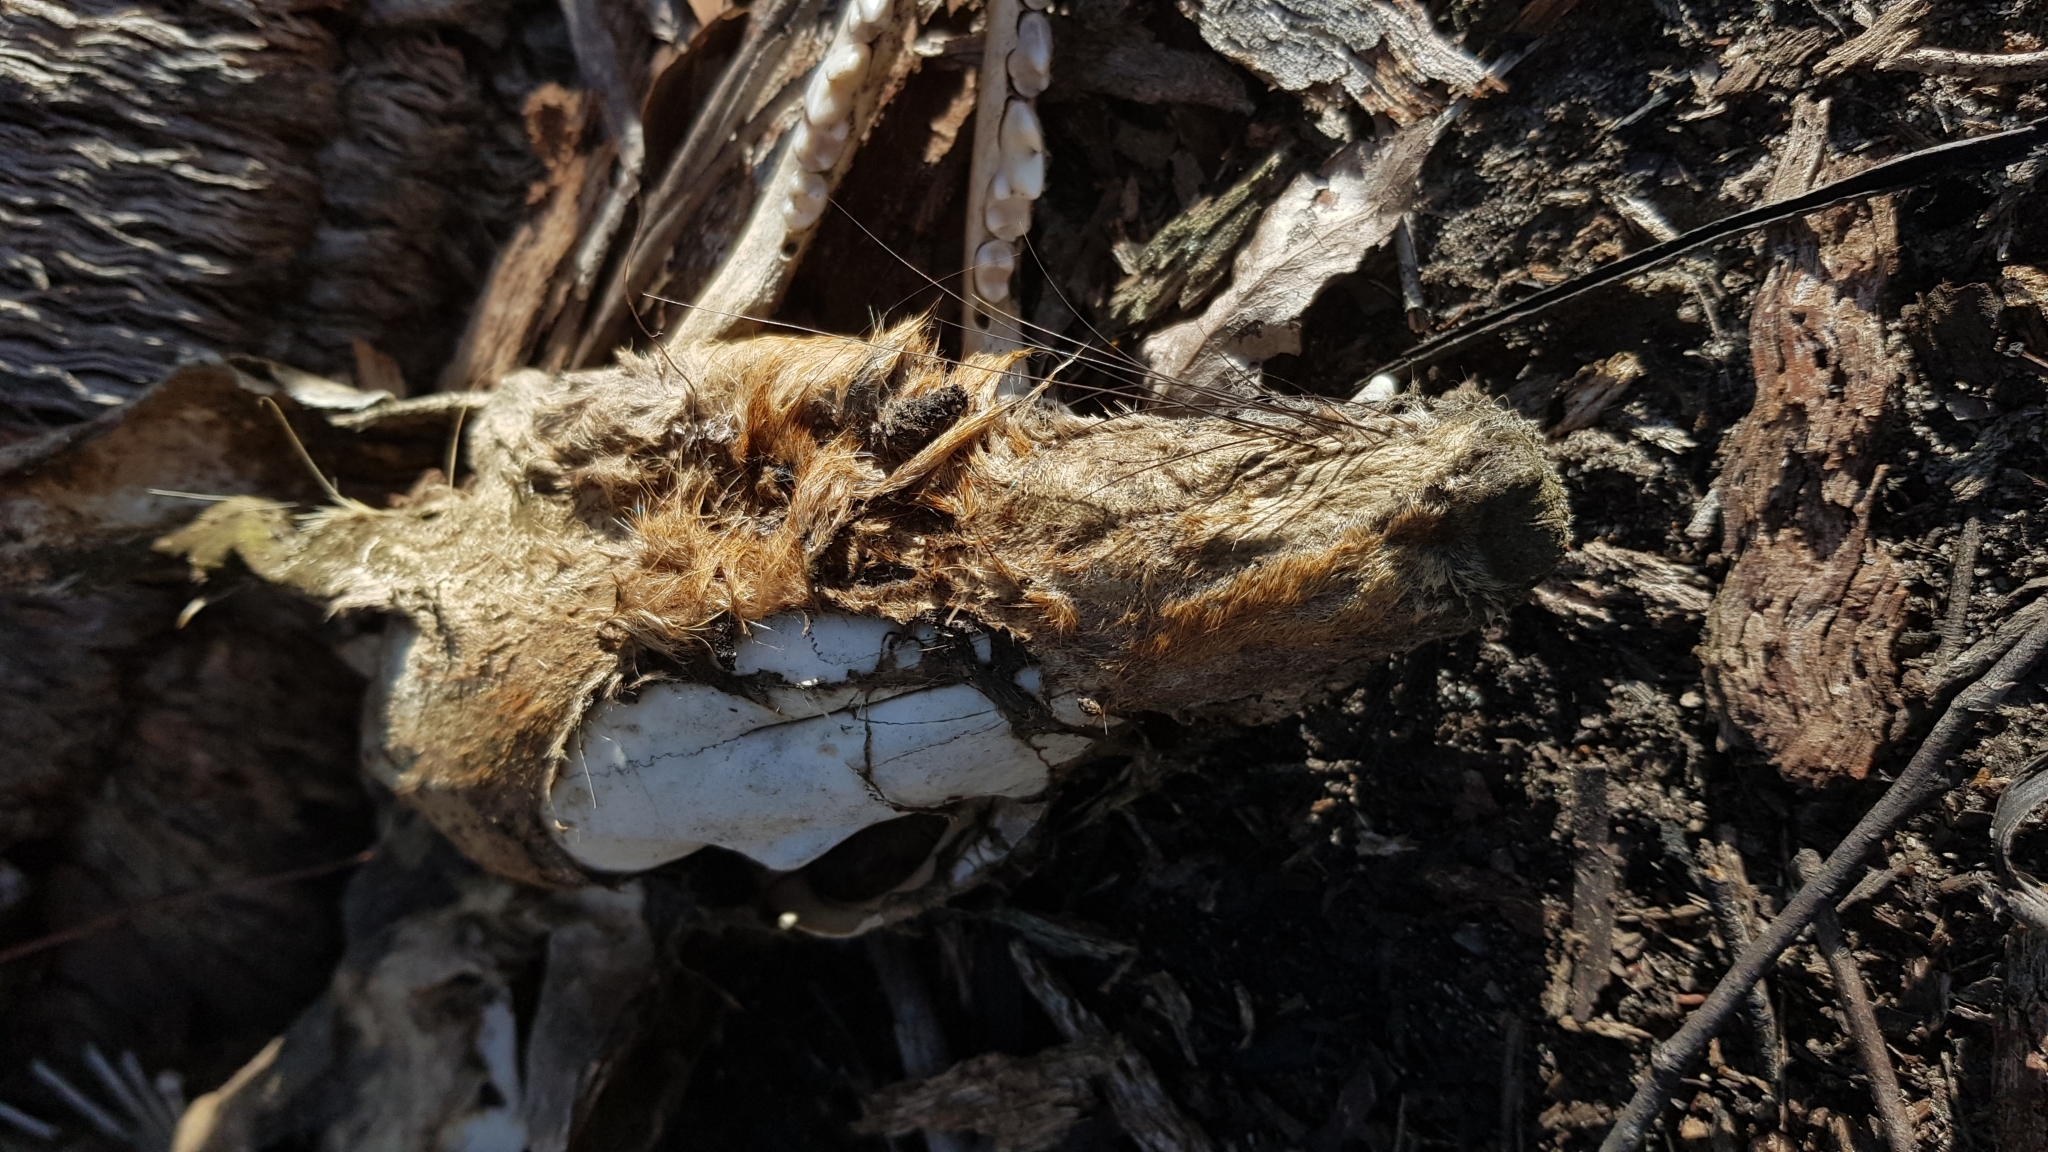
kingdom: Animalia
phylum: Chordata
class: Mammalia
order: Carnivora
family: Canidae
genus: Vulpes
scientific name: Vulpes vulpes
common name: Red fox
